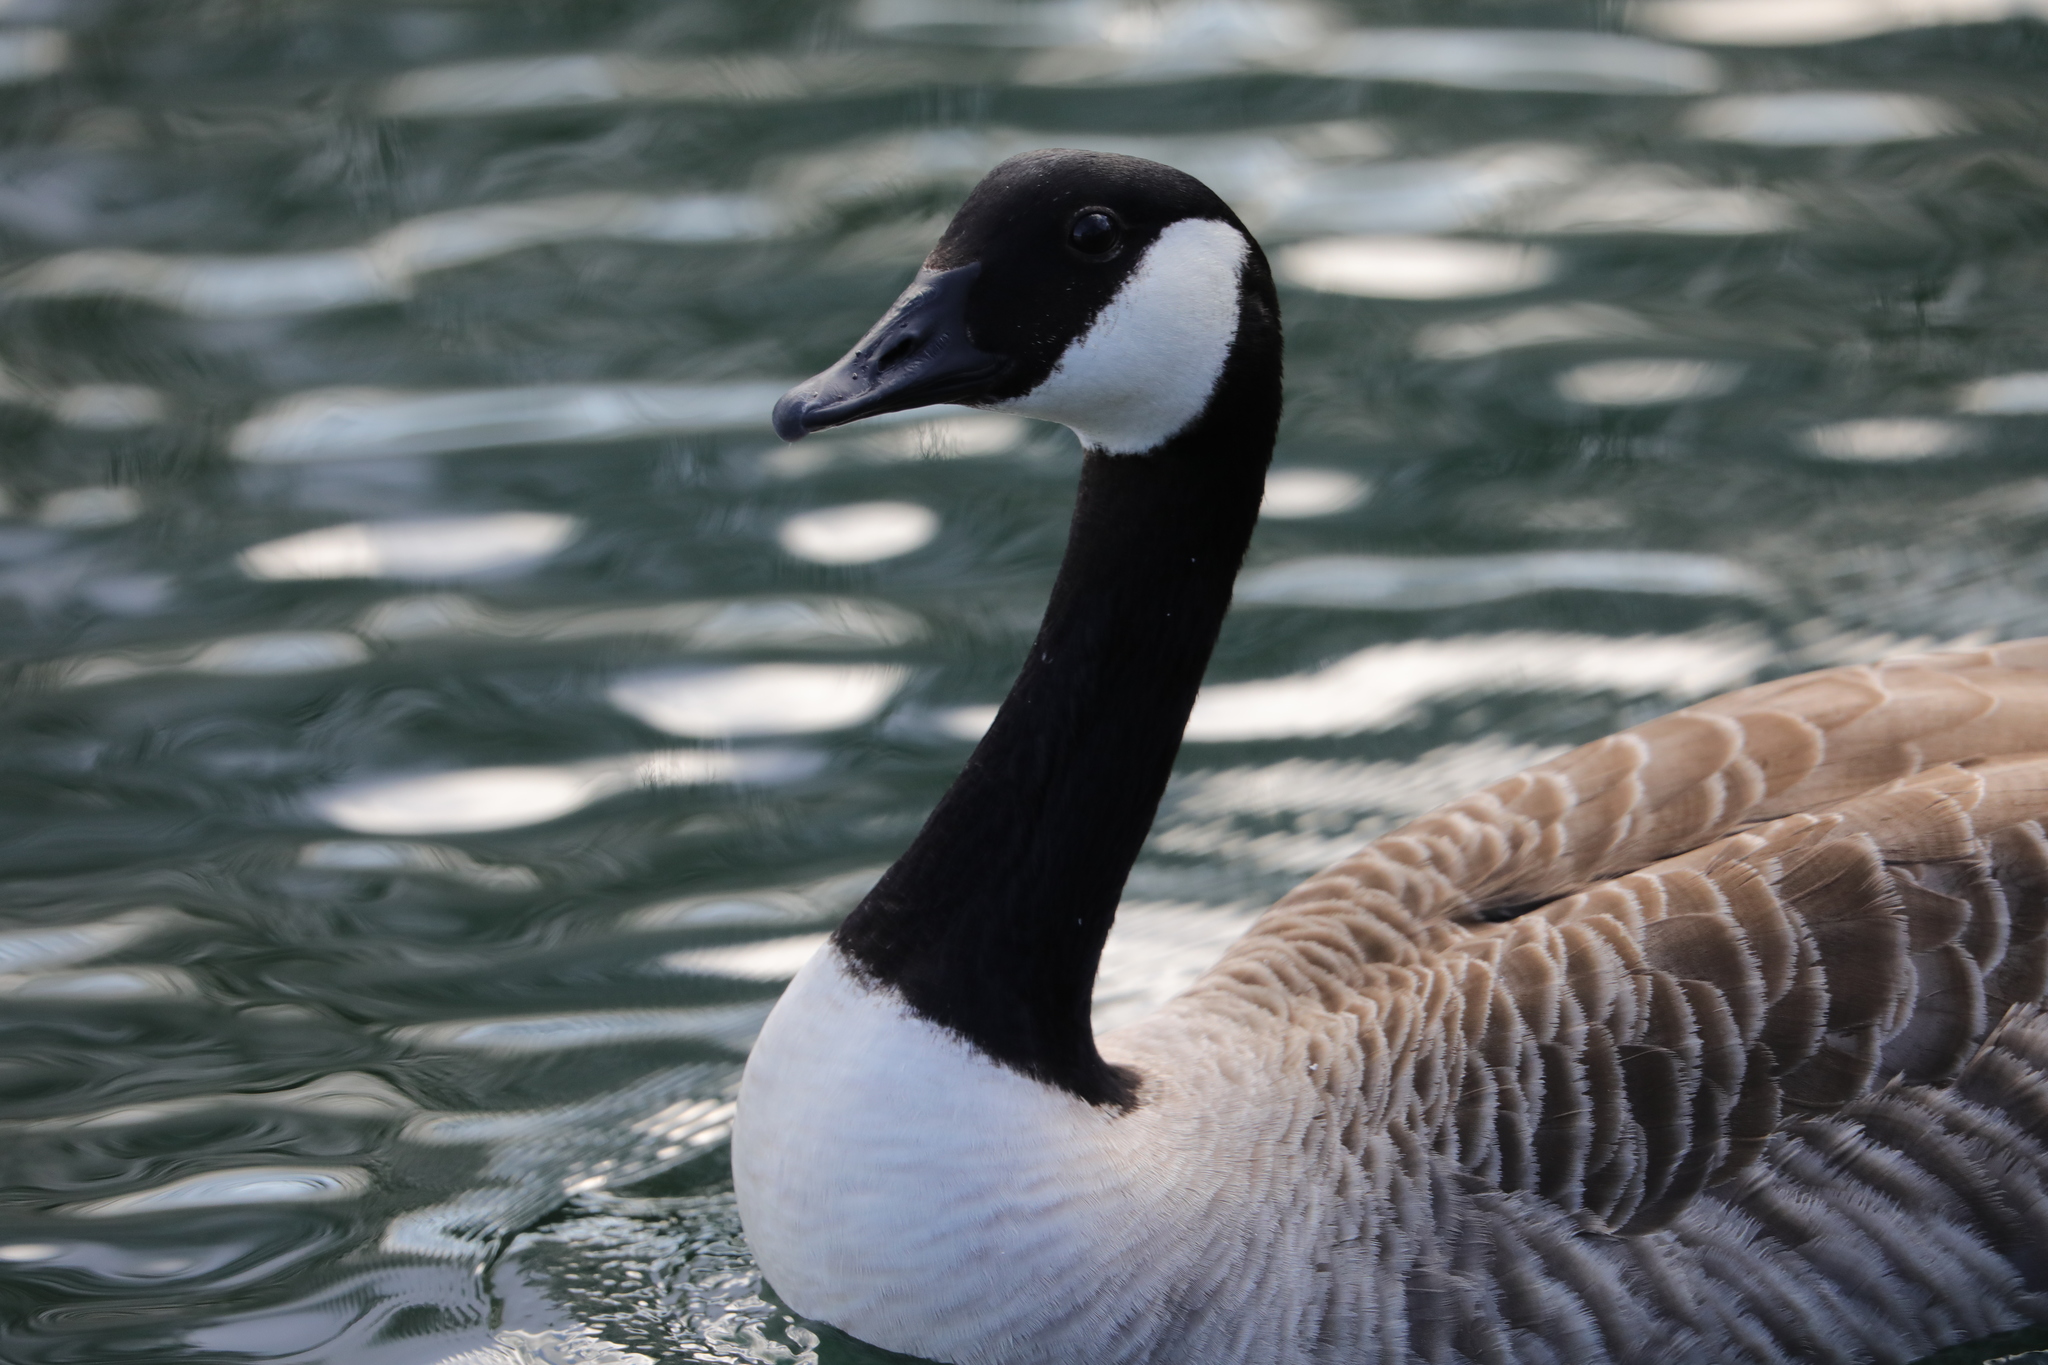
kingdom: Animalia
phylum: Chordata
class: Aves
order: Anseriformes
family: Anatidae
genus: Branta
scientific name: Branta canadensis
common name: Canada goose
